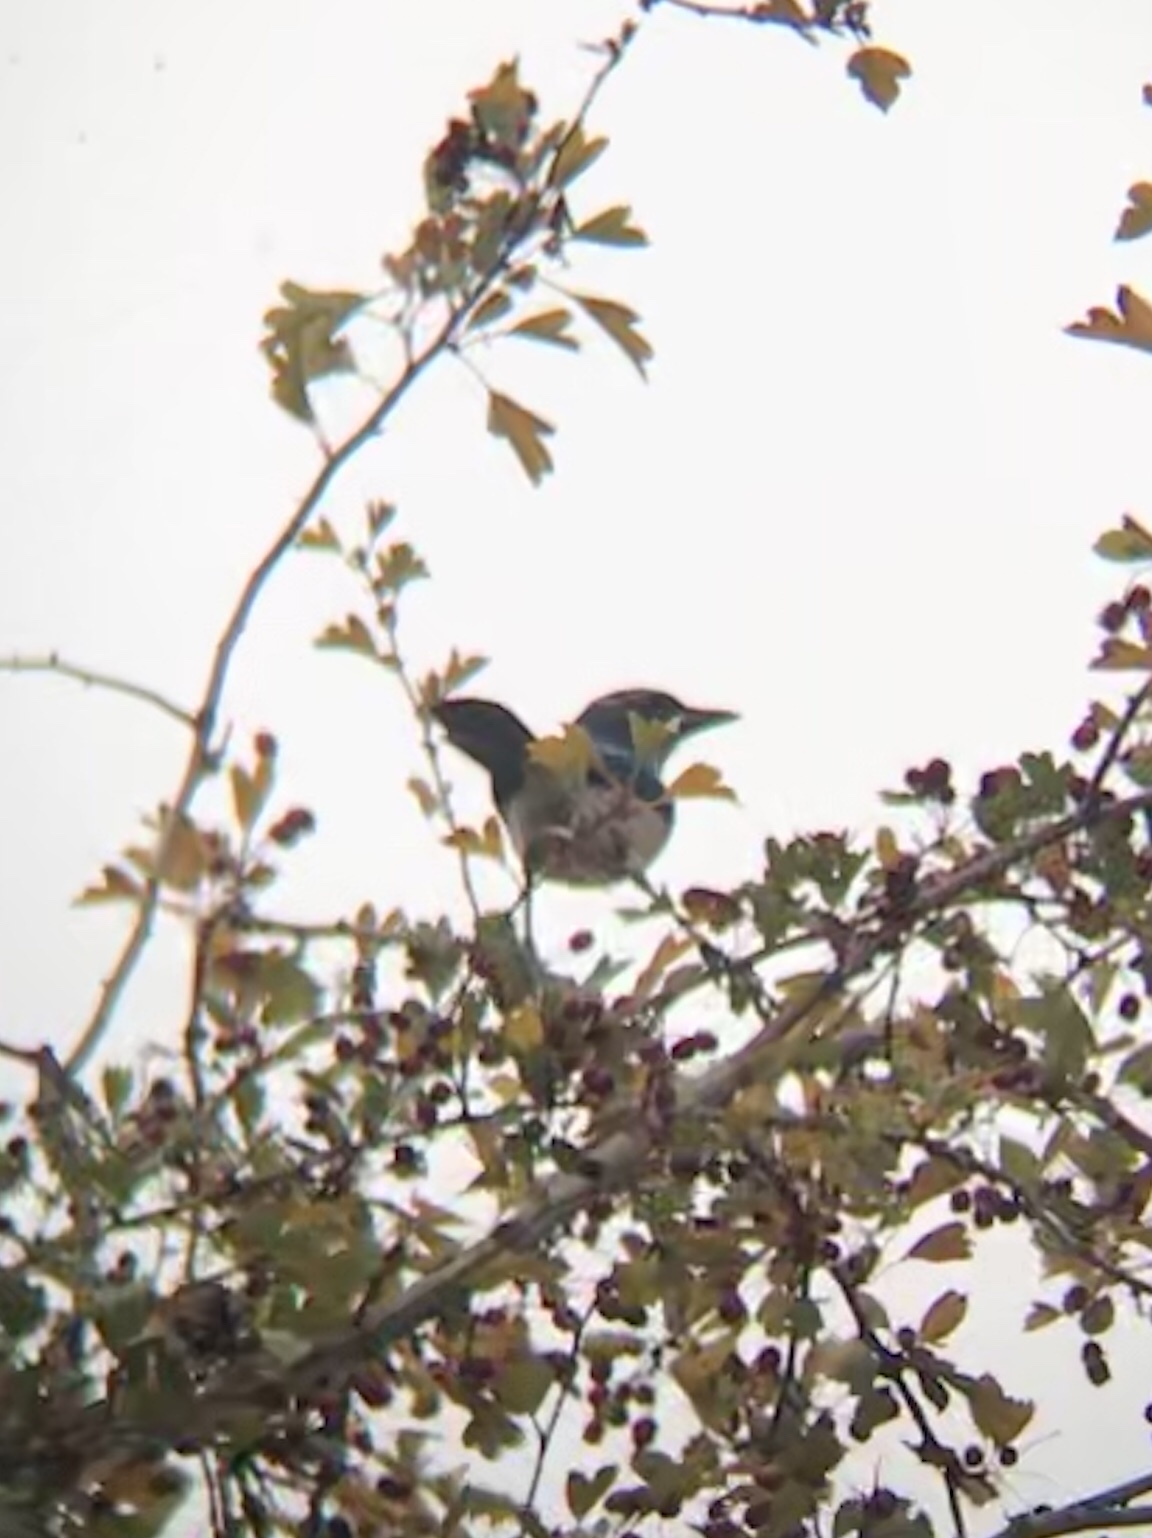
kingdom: Animalia
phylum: Chordata
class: Aves
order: Passeriformes
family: Corvidae
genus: Aphelocoma
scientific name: Aphelocoma californica
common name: California scrub-jay
